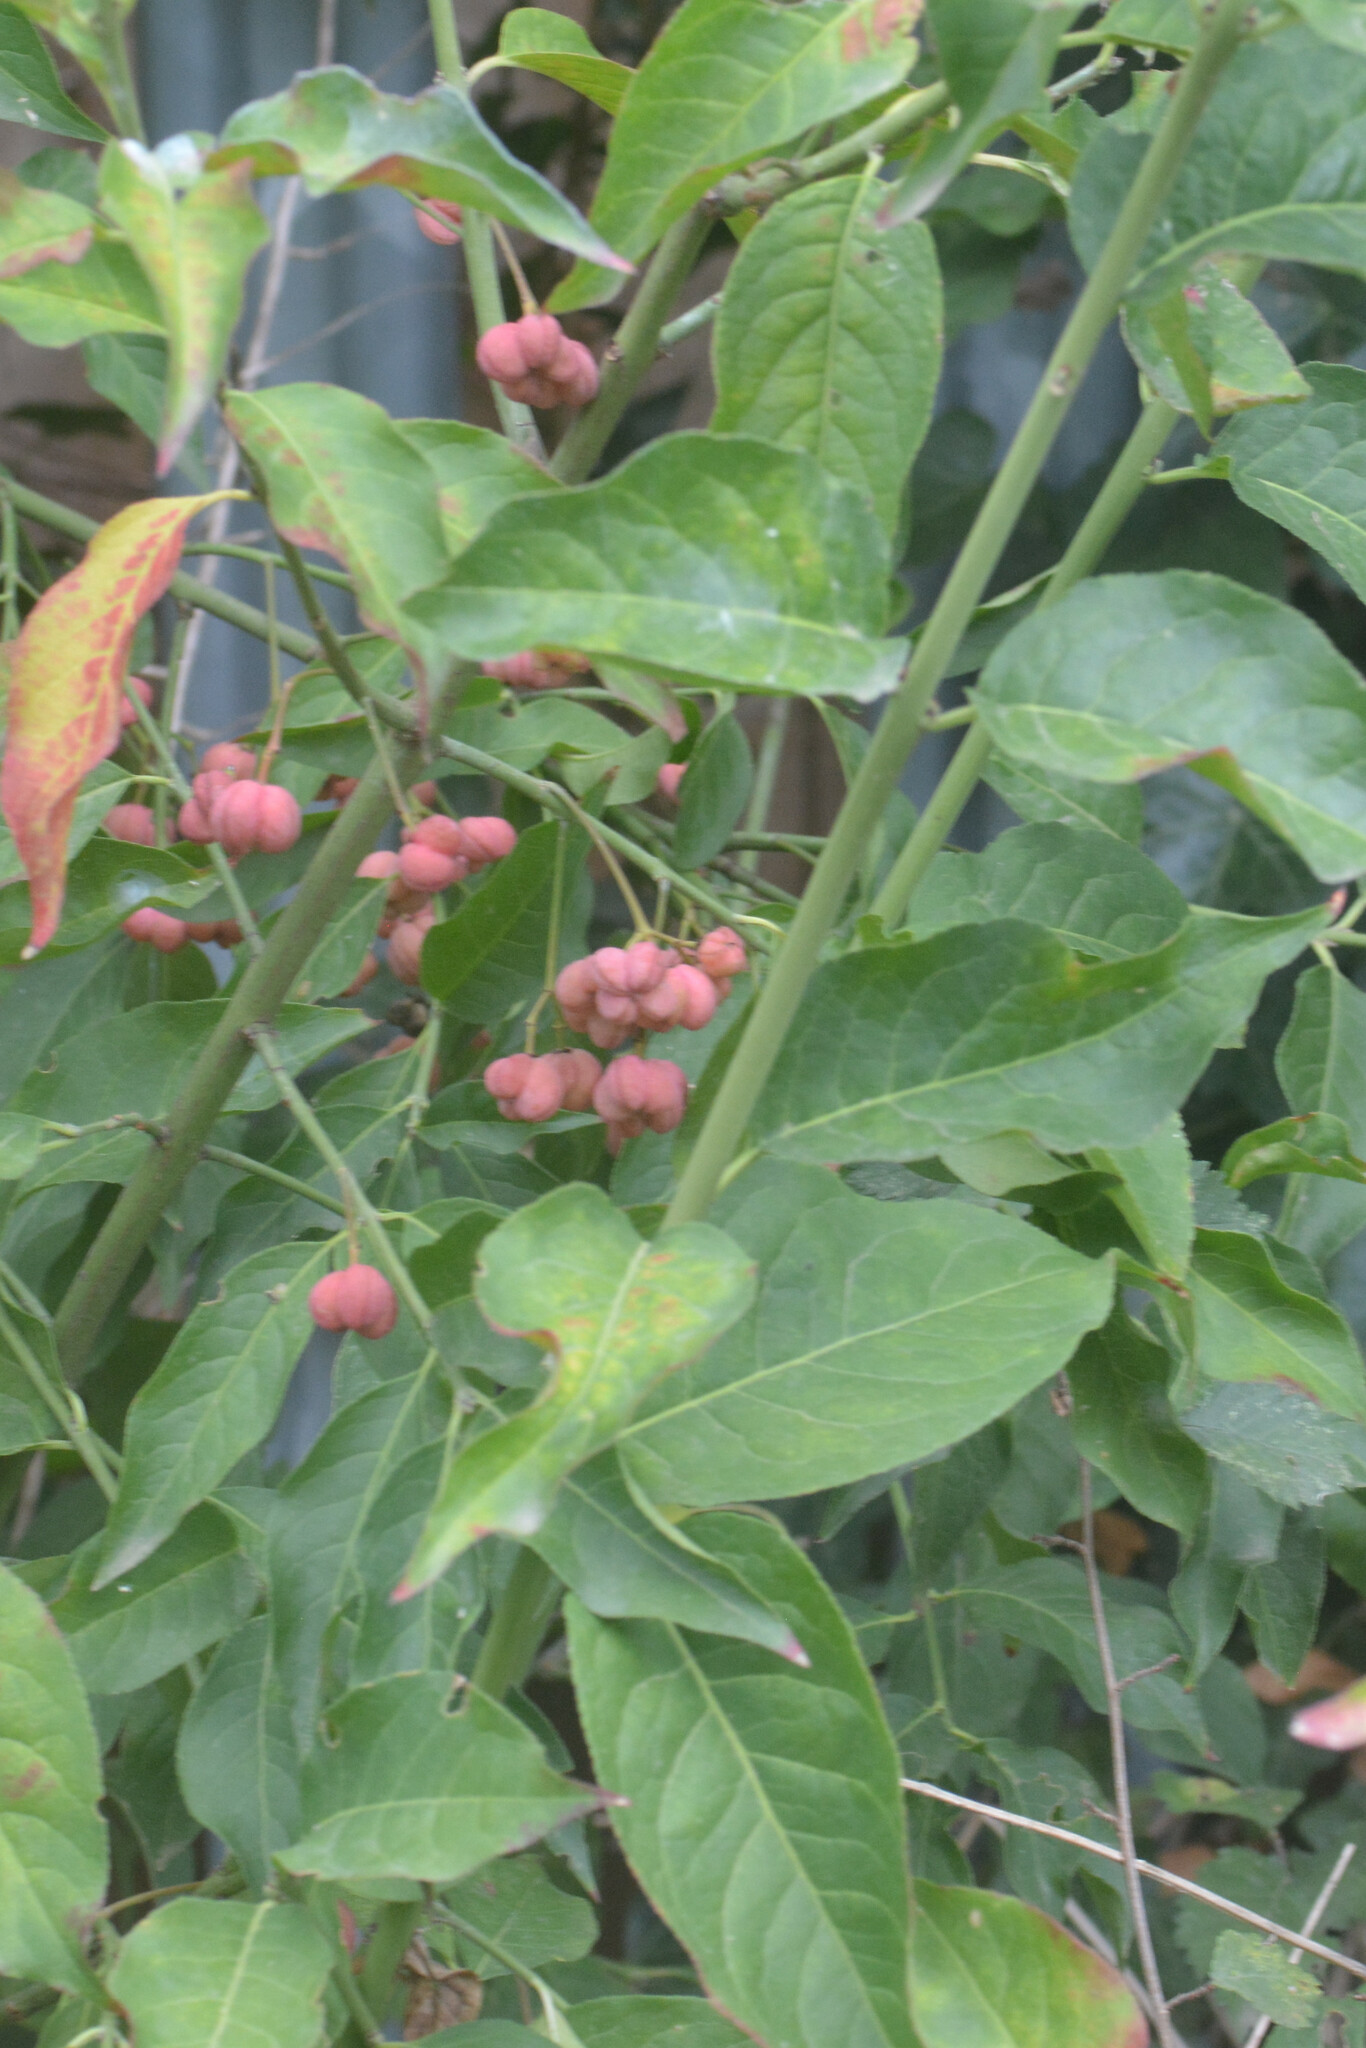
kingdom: Plantae
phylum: Tracheophyta
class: Magnoliopsida
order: Celastrales
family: Celastraceae
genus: Euonymus
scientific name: Euonymus europaeus
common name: Spindle
